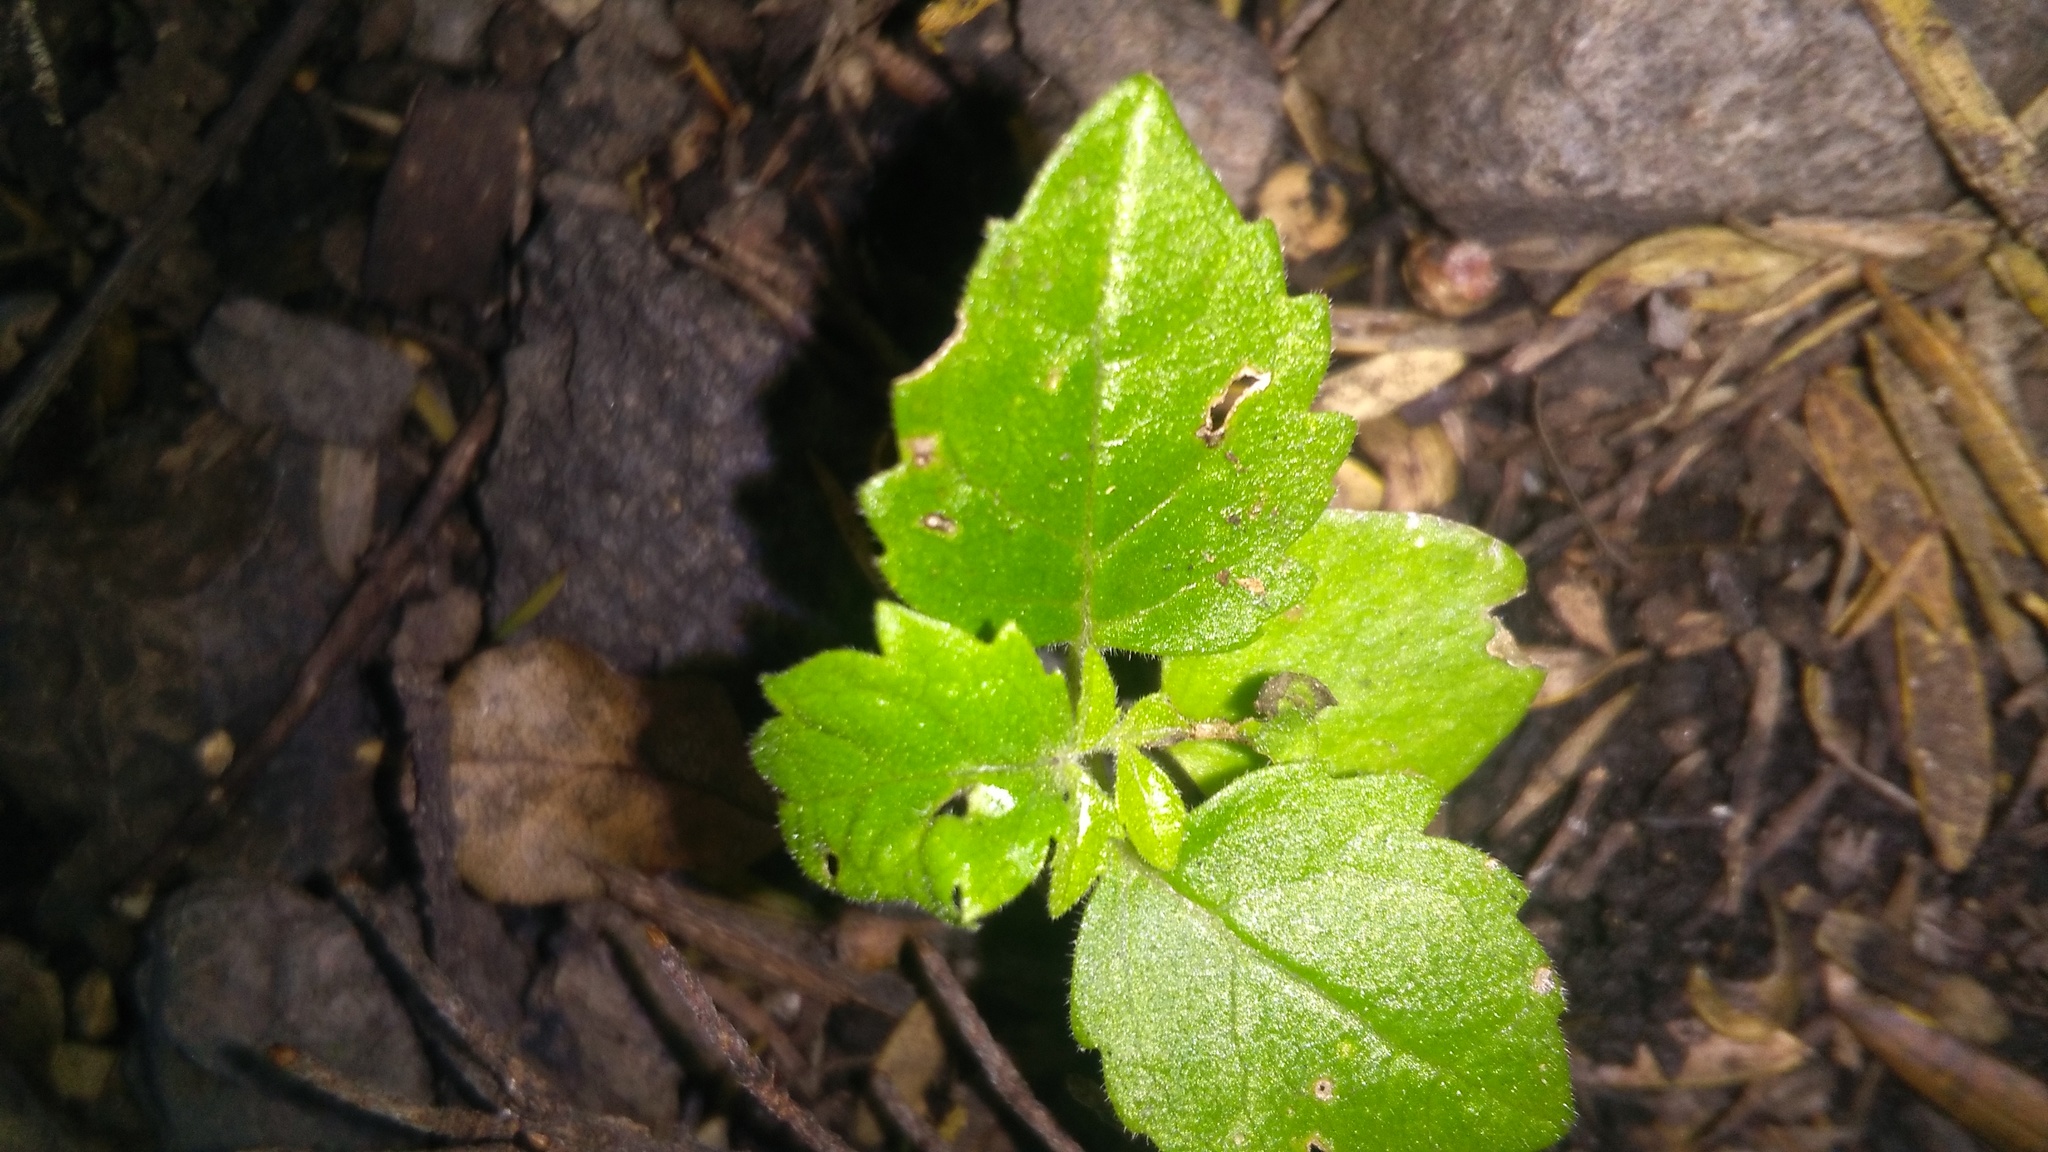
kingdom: Plantae
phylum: Tracheophyta
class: Magnoliopsida
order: Lamiales
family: Lamiaceae
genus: Vitex
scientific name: Vitex lucens
